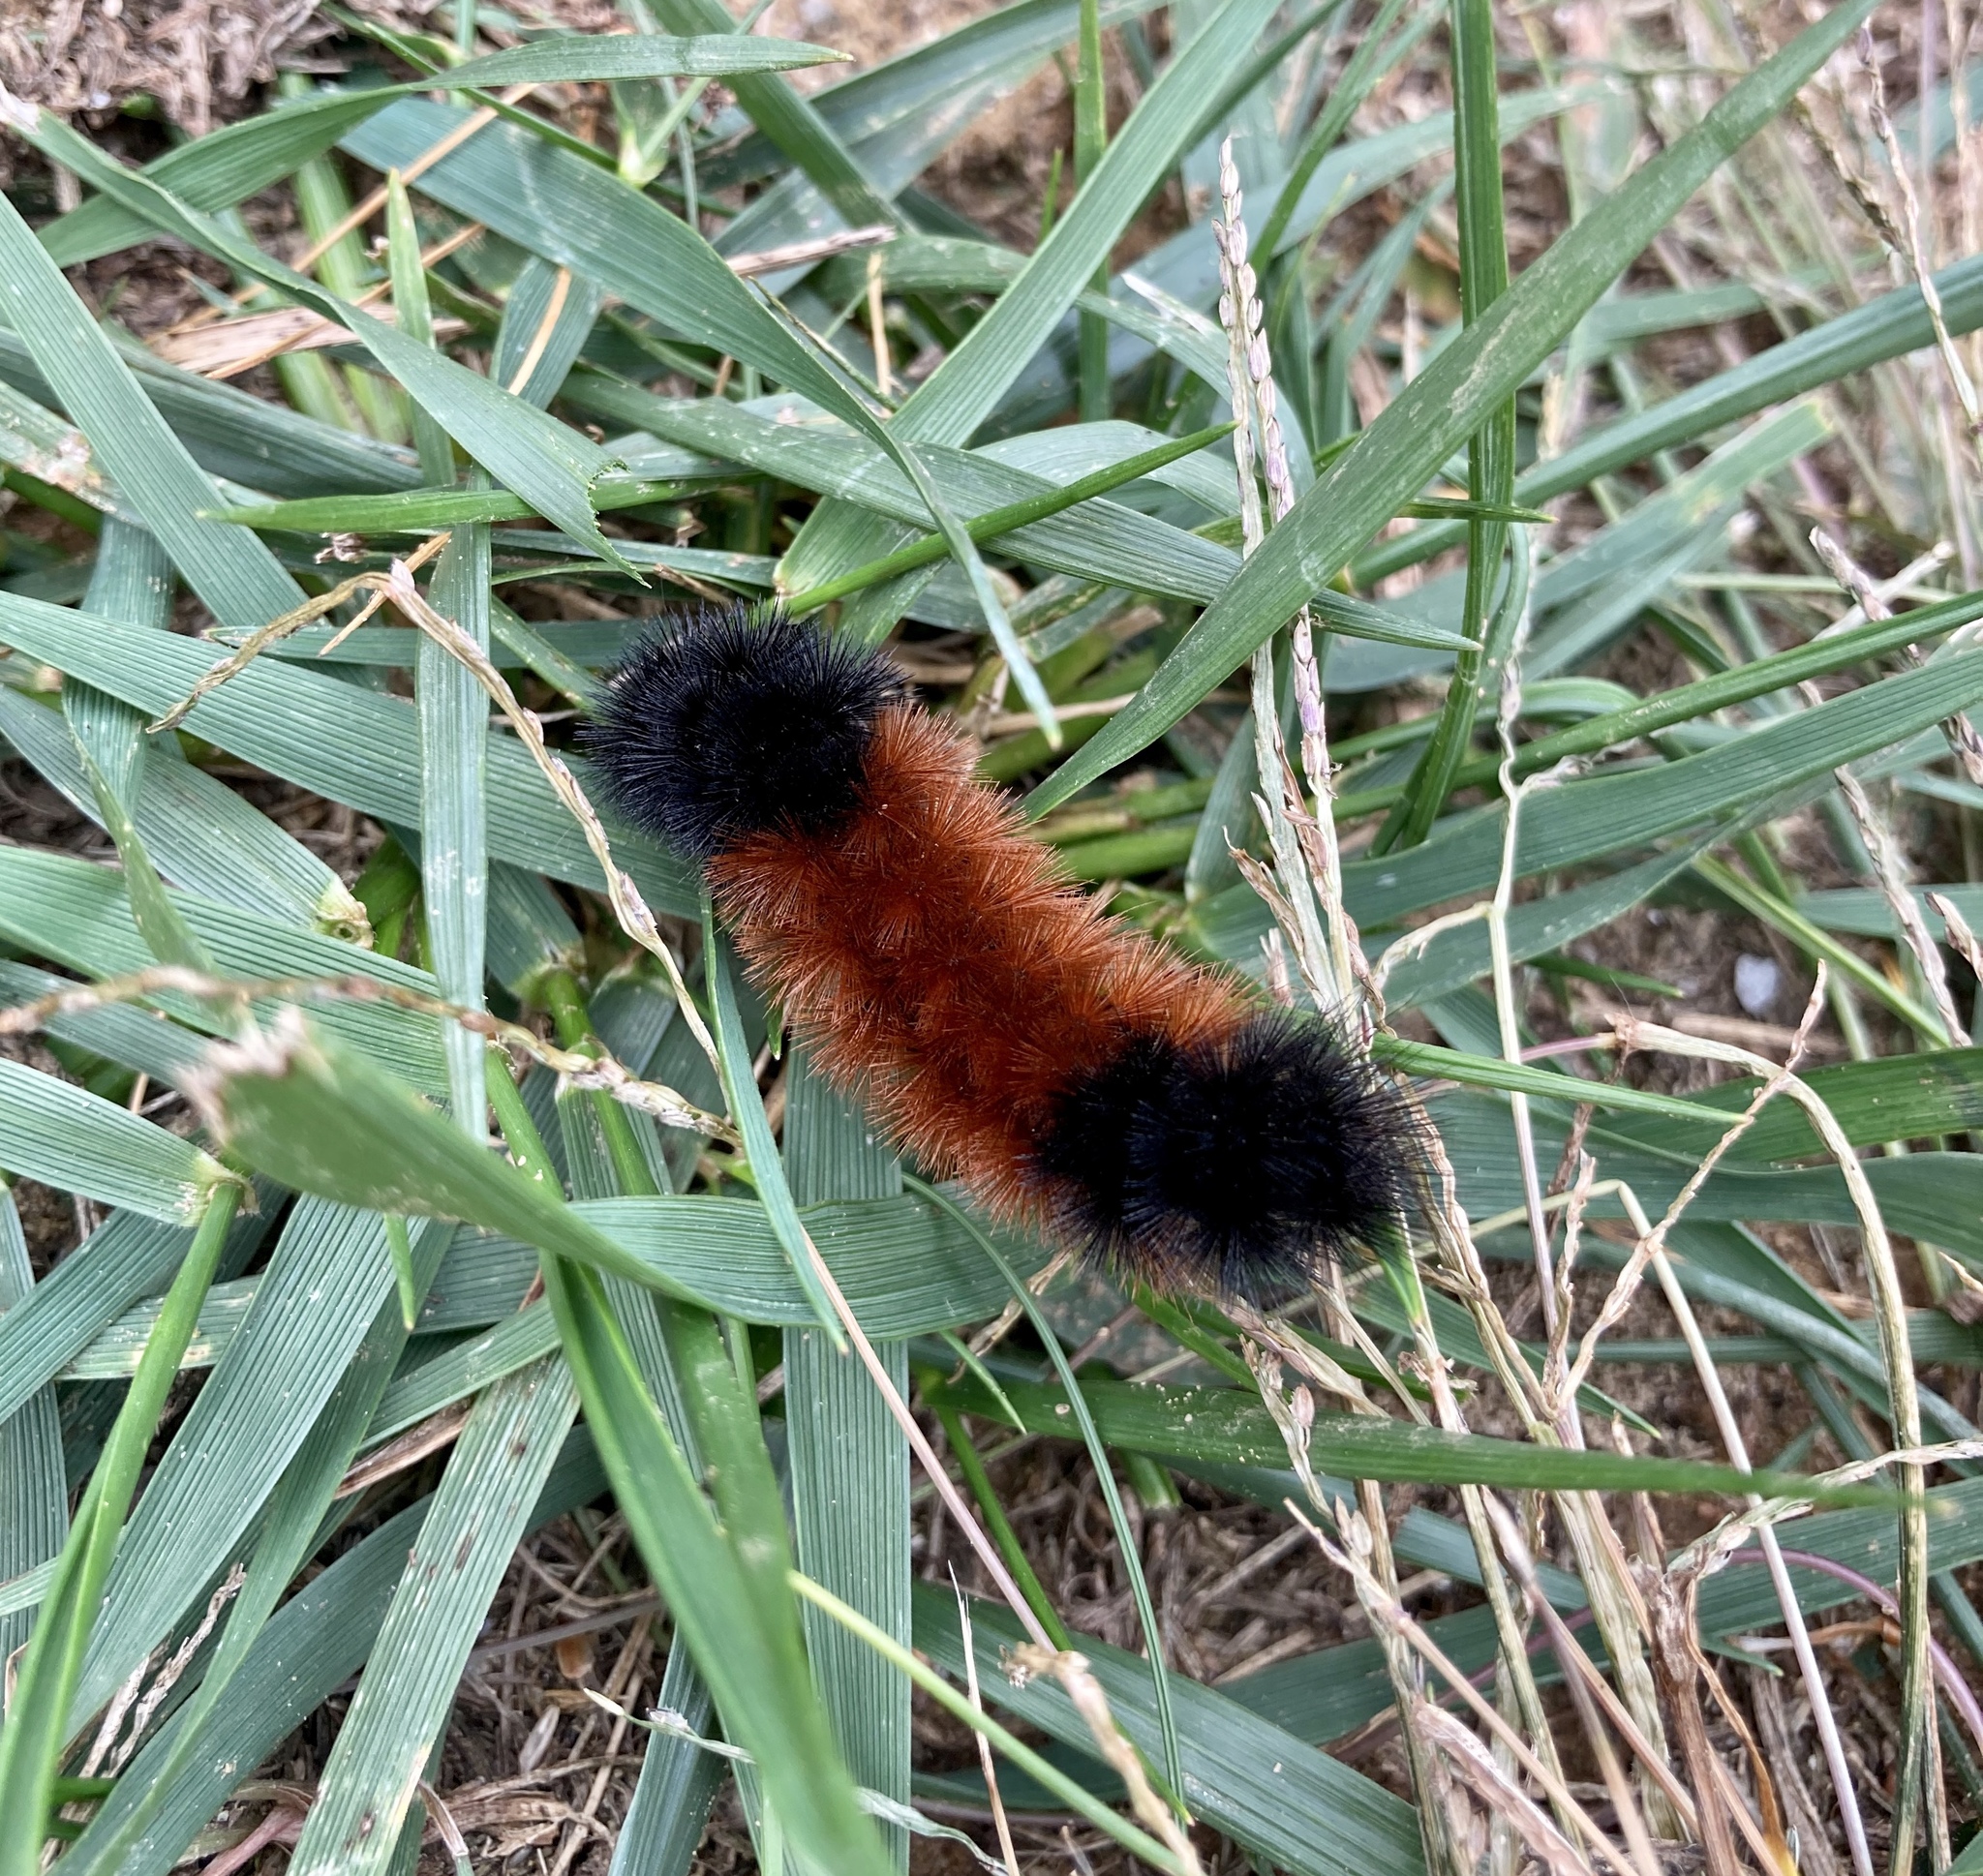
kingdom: Animalia
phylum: Arthropoda
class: Insecta
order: Lepidoptera
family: Erebidae
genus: Pyrrharctia
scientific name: Pyrrharctia isabella
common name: Isabella tiger moth
